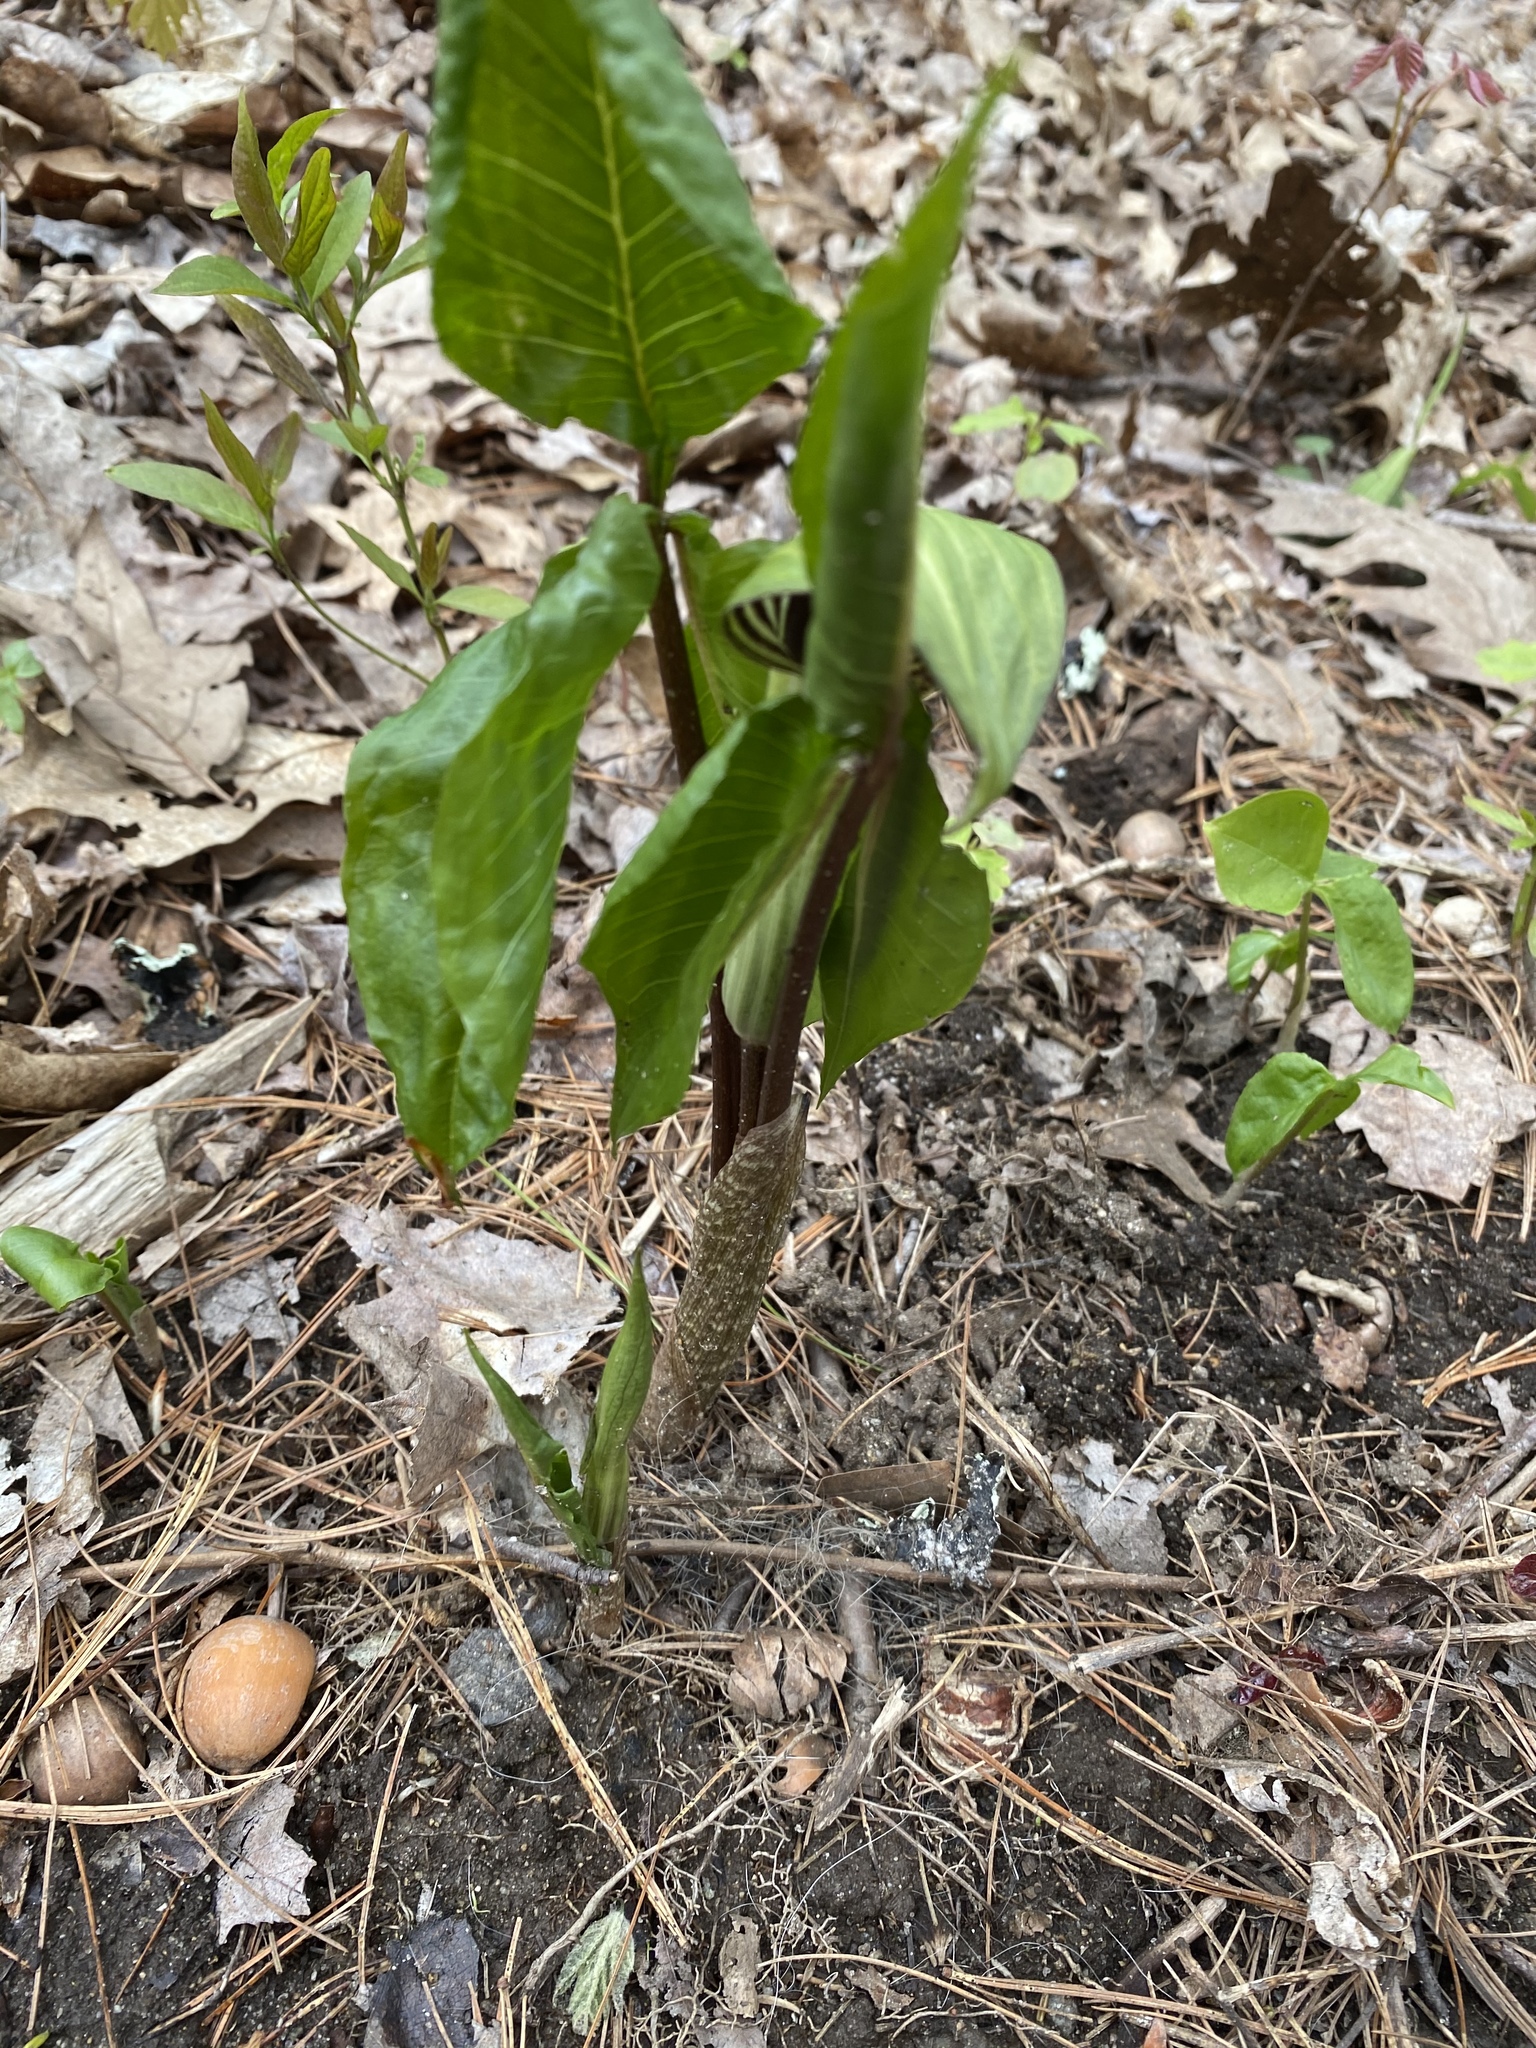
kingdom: Plantae
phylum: Tracheophyta
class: Liliopsida
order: Alismatales
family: Araceae
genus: Arisaema
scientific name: Arisaema triphyllum
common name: Jack-in-the-pulpit
